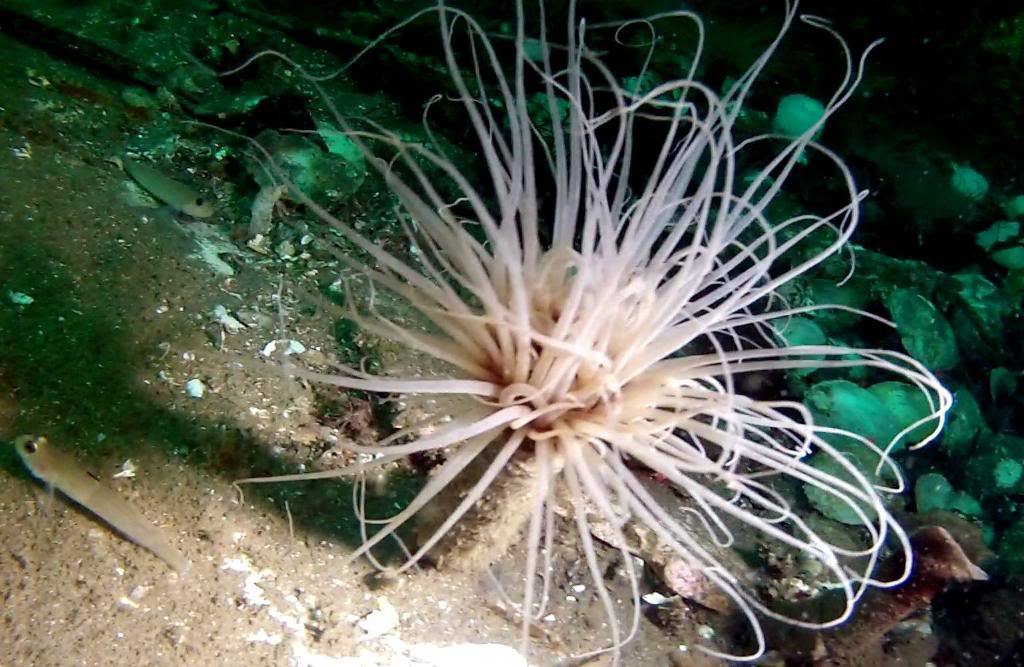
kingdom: Animalia
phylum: Cnidaria
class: Anthozoa
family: Cerianthidae
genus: Pachycerianthus
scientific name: Pachycerianthus fimbriatus
